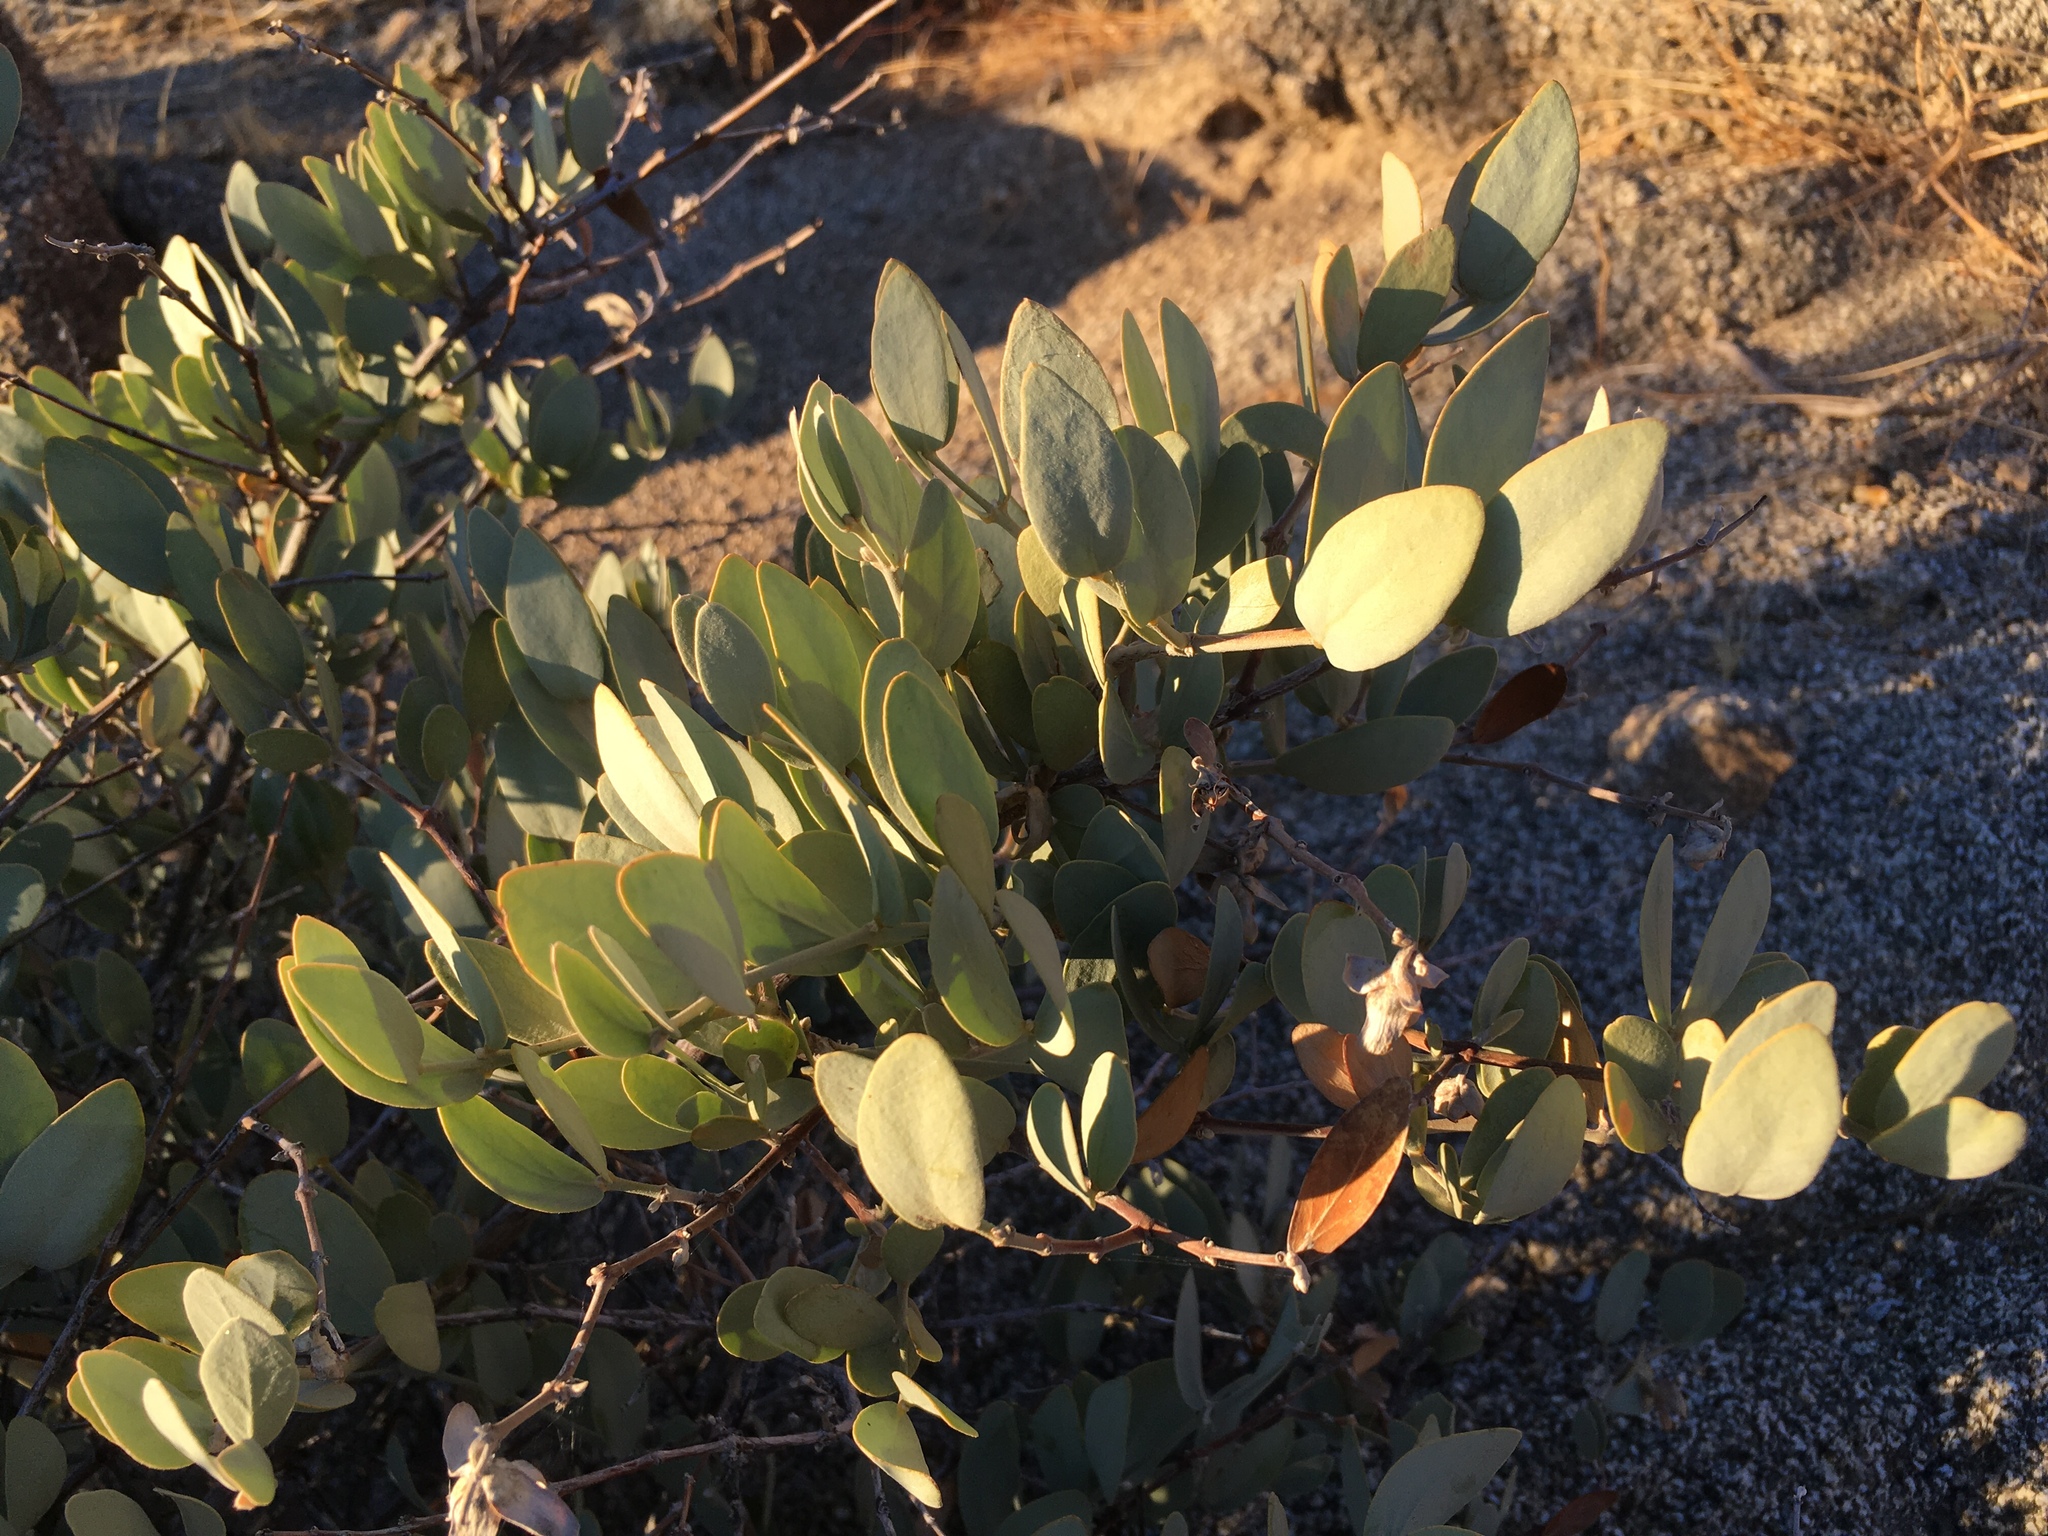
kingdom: Plantae
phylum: Tracheophyta
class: Magnoliopsida
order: Caryophyllales
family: Simmondsiaceae
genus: Simmondsia
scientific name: Simmondsia chinensis
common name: Jojoba
